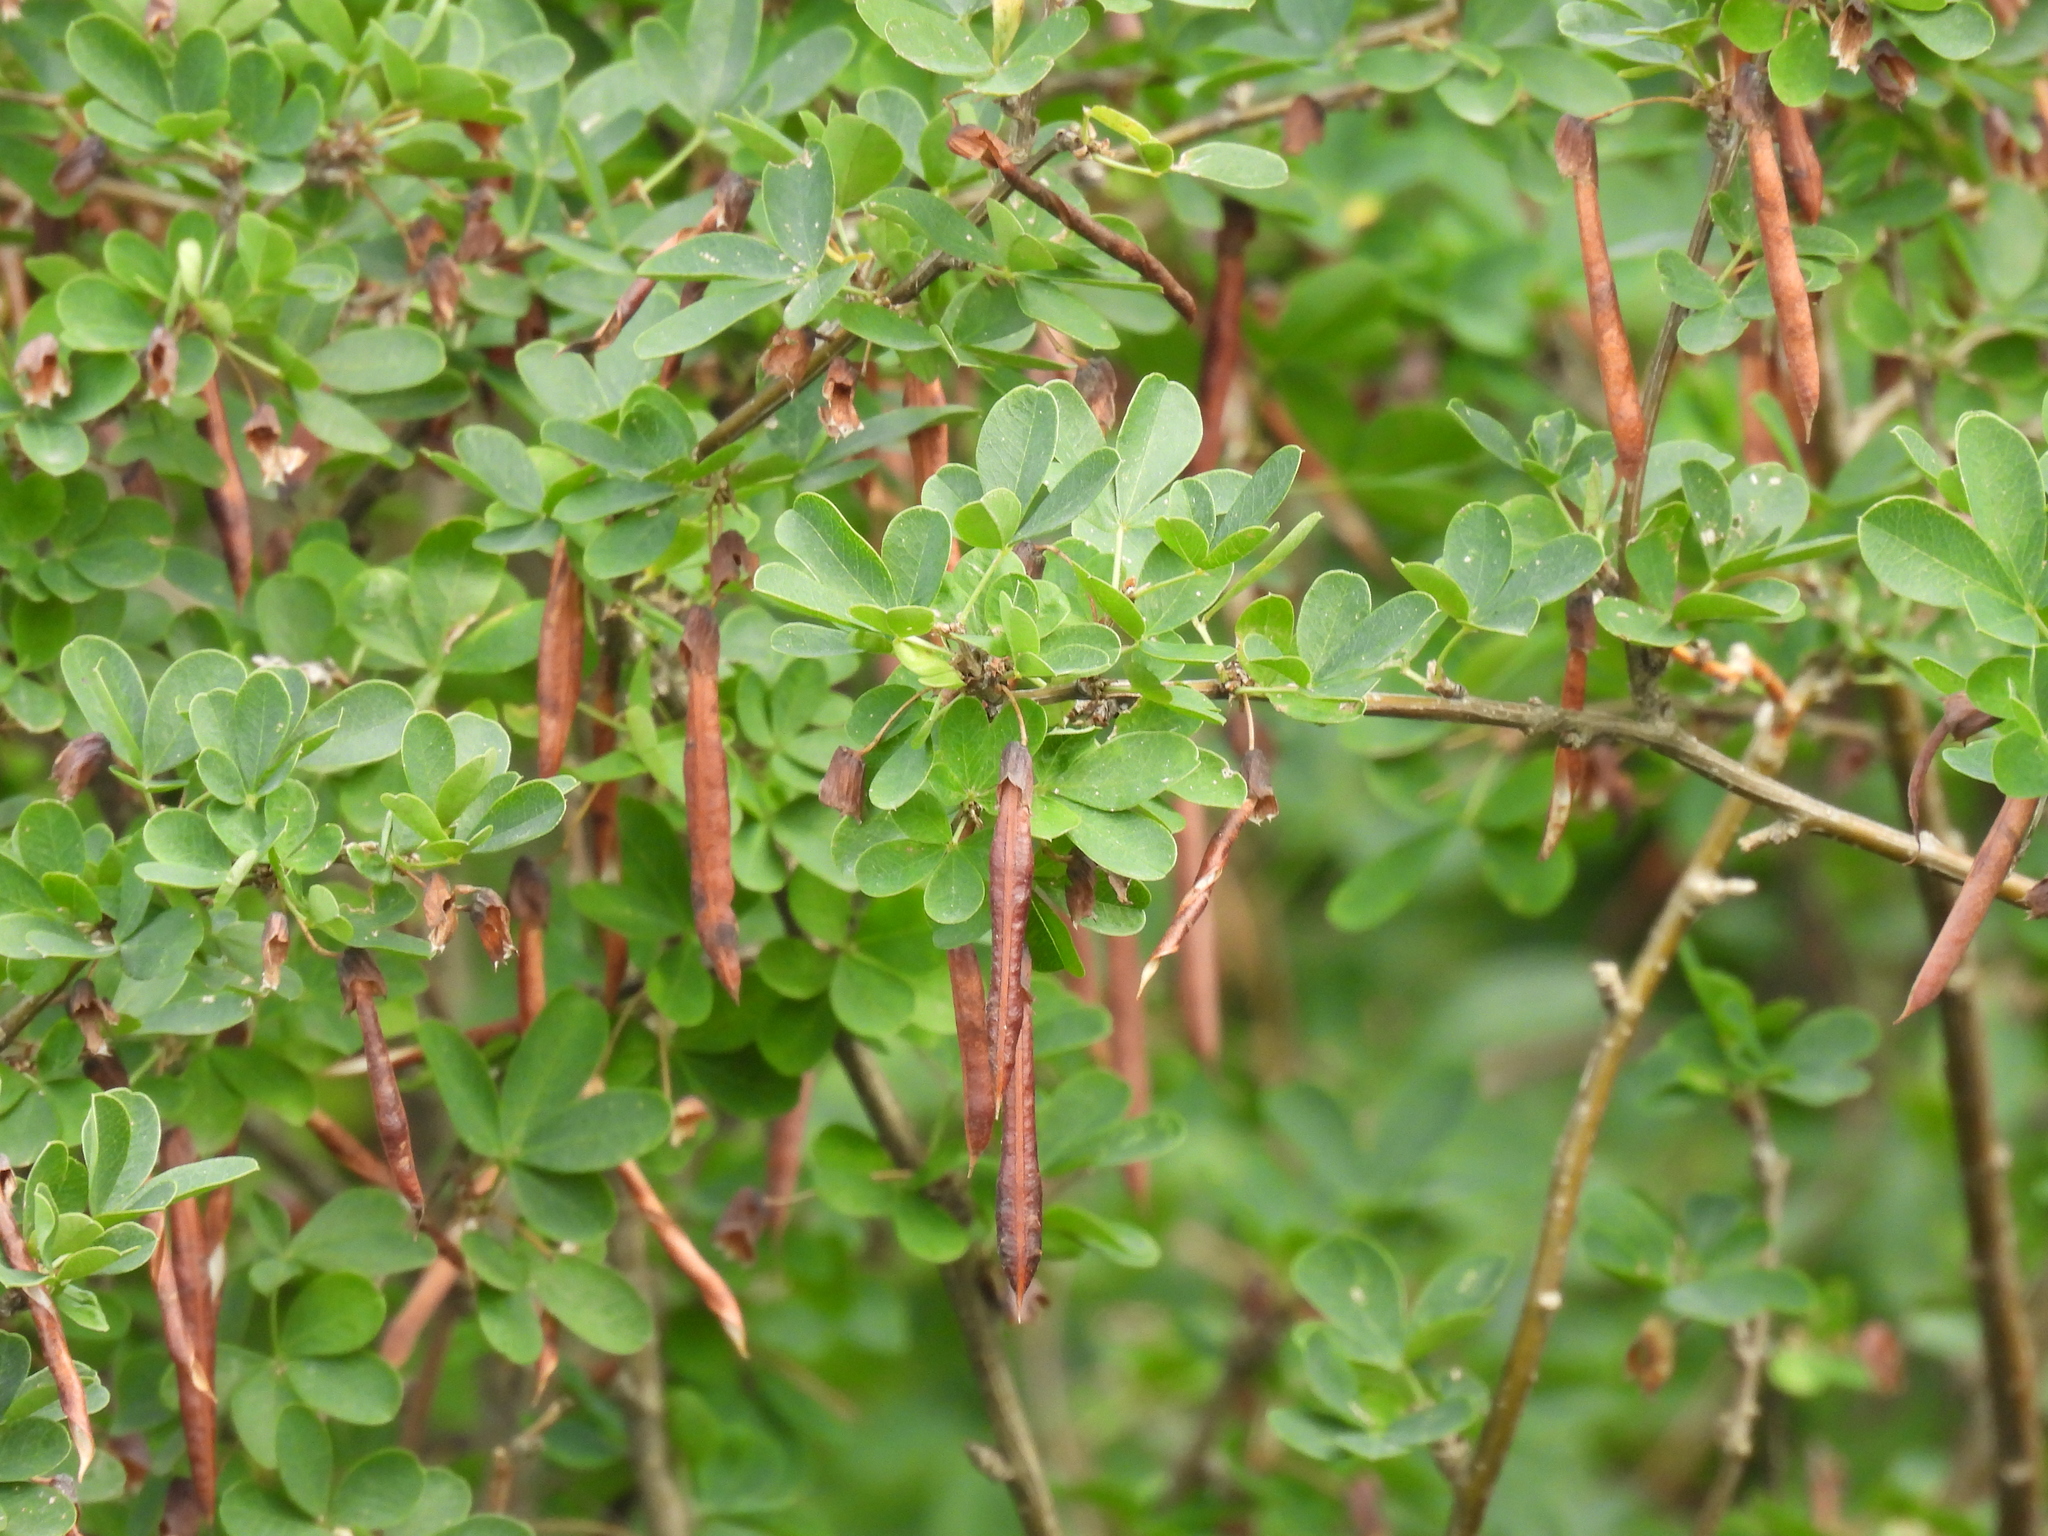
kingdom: Plantae
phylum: Tracheophyta
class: Magnoliopsida
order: Fabales
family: Fabaceae
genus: Caragana
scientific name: Caragana arborescens
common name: Siberian peashrub
